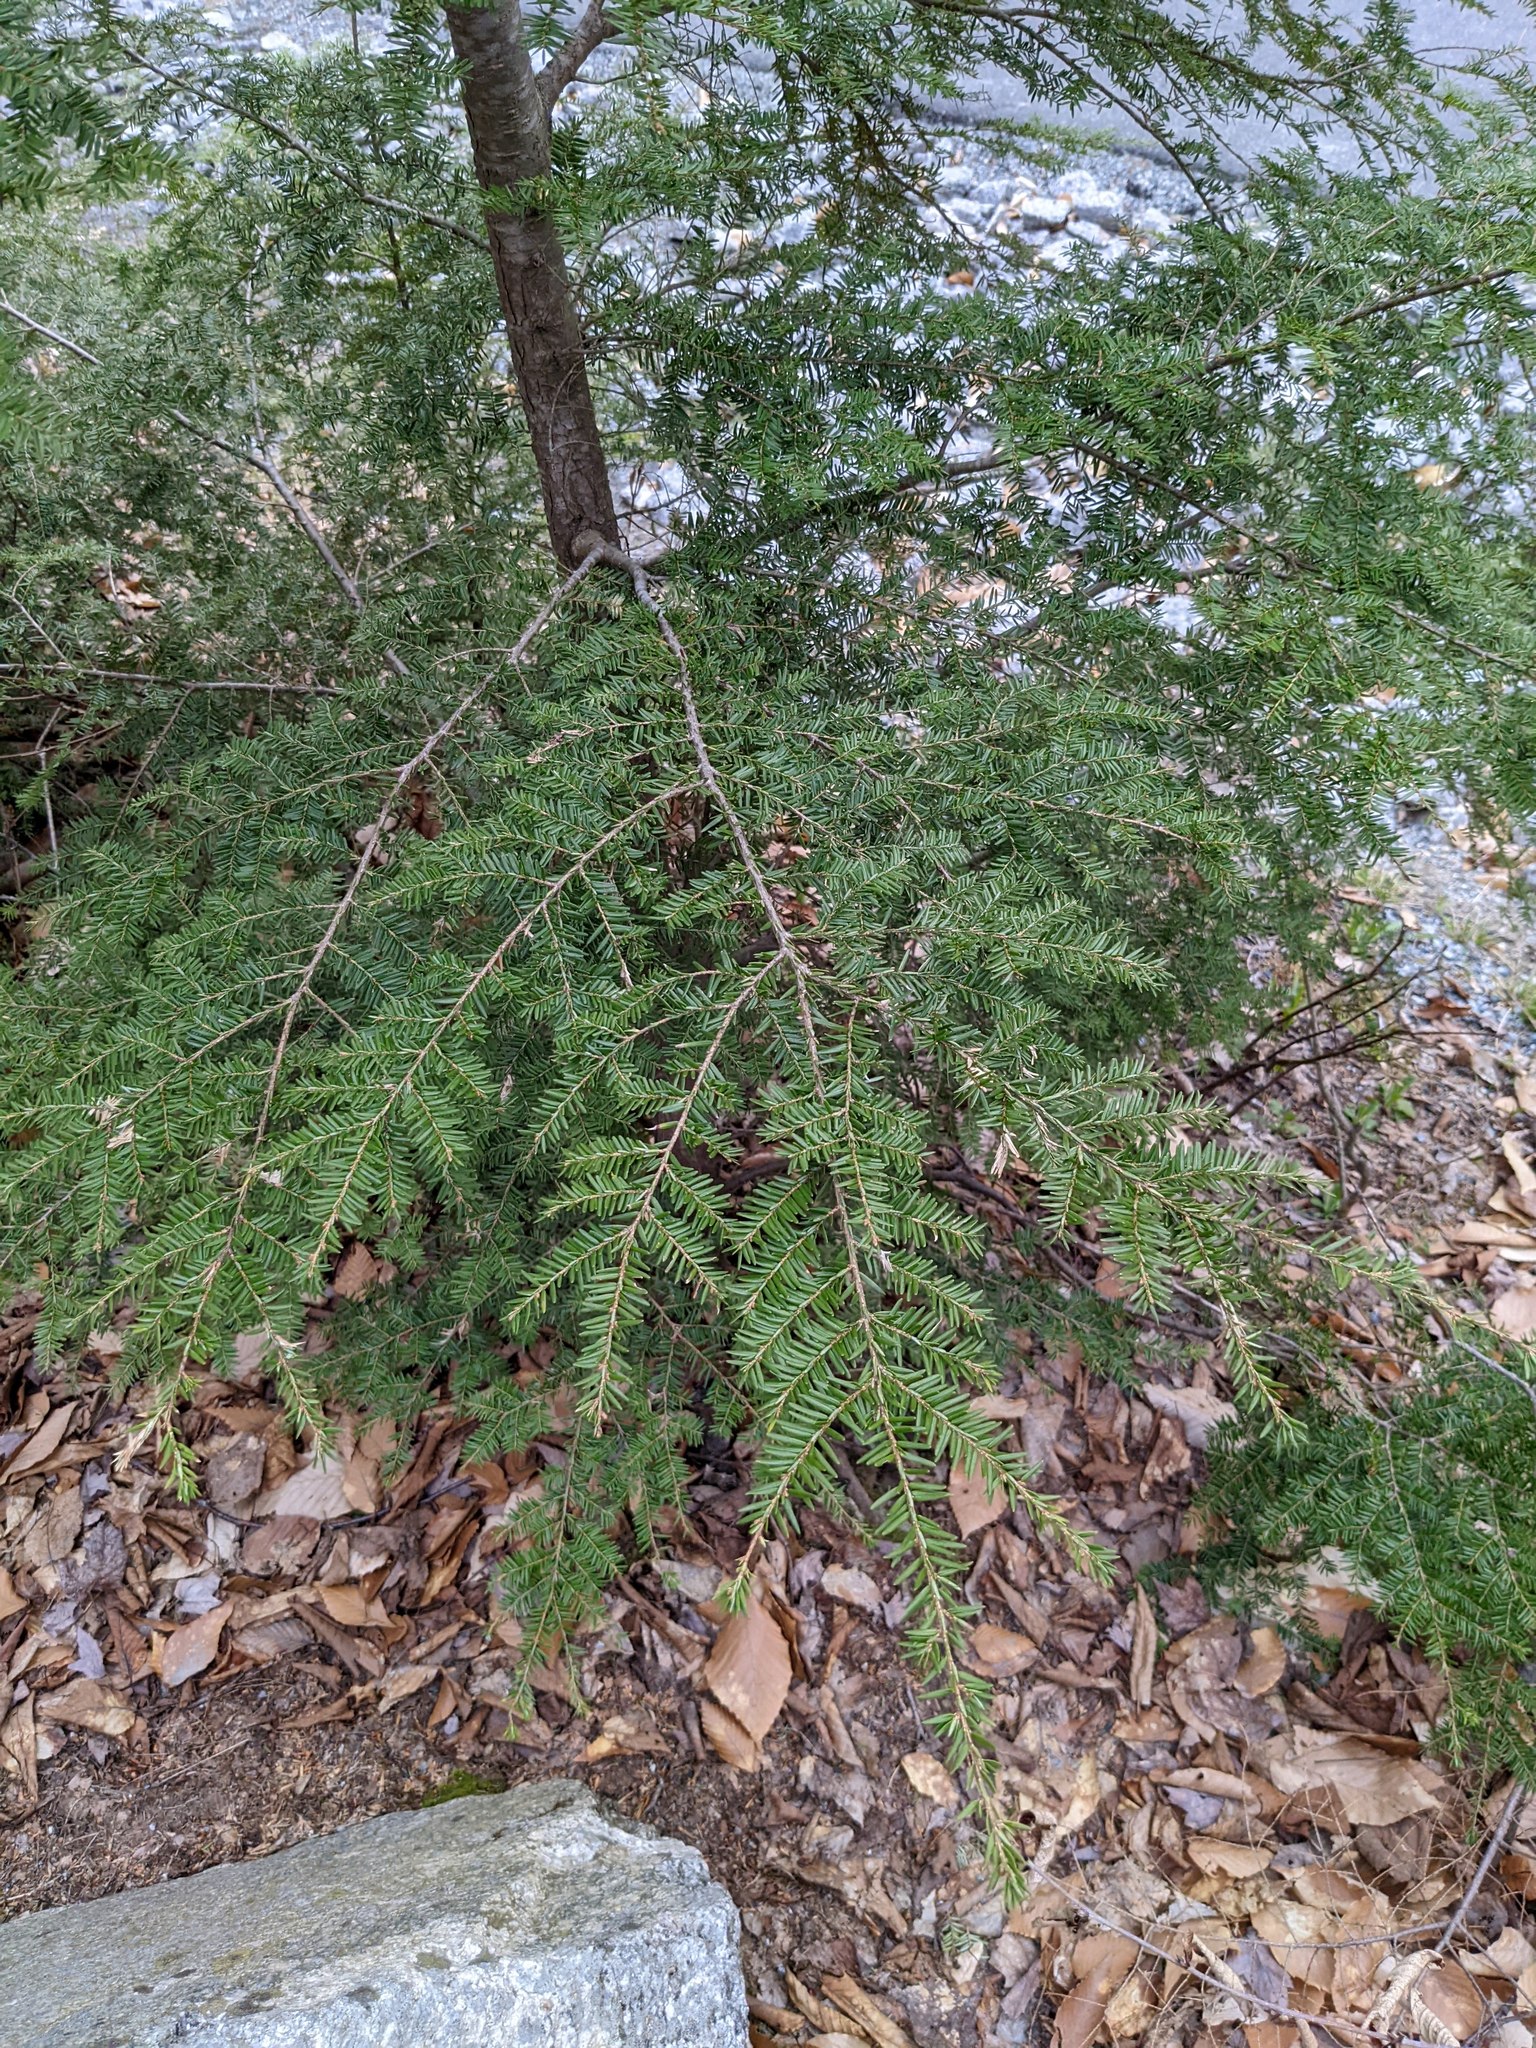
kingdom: Plantae
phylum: Tracheophyta
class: Pinopsida
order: Pinales
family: Pinaceae
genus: Tsuga
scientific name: Tsuga canadensis
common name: Eastern hemlock
